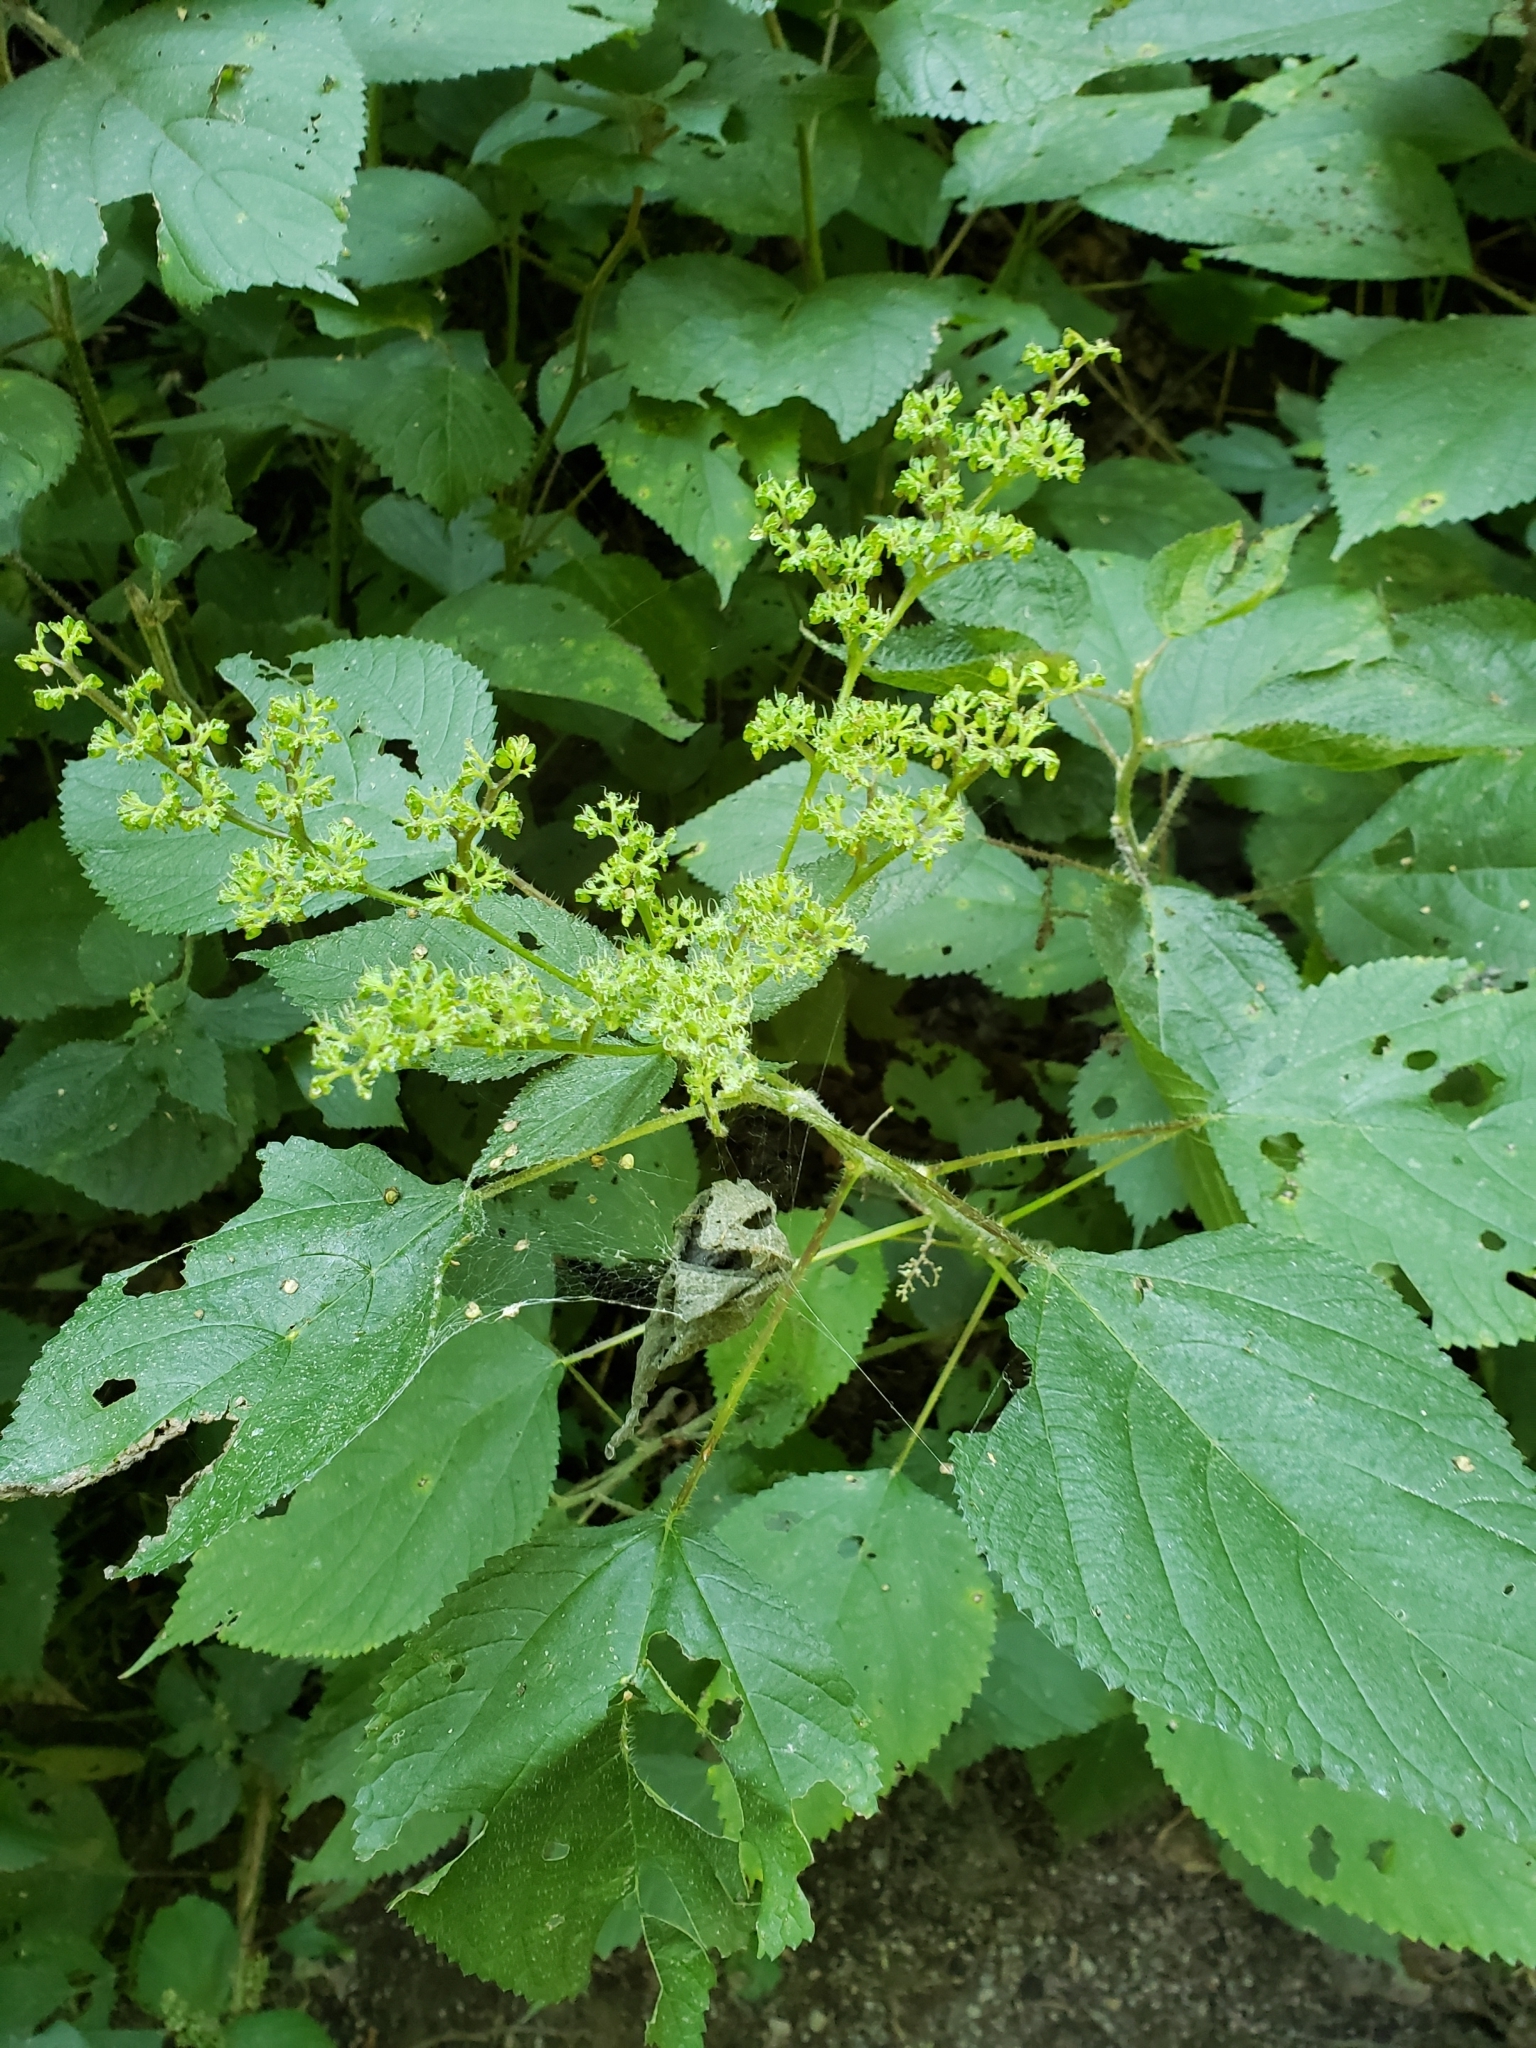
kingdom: Plantae
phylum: Tracheophyta
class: Magnoliopsida
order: Rosales
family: Urticaceae
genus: Laportea
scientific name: Laportea canadensis
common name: Canada nettle
